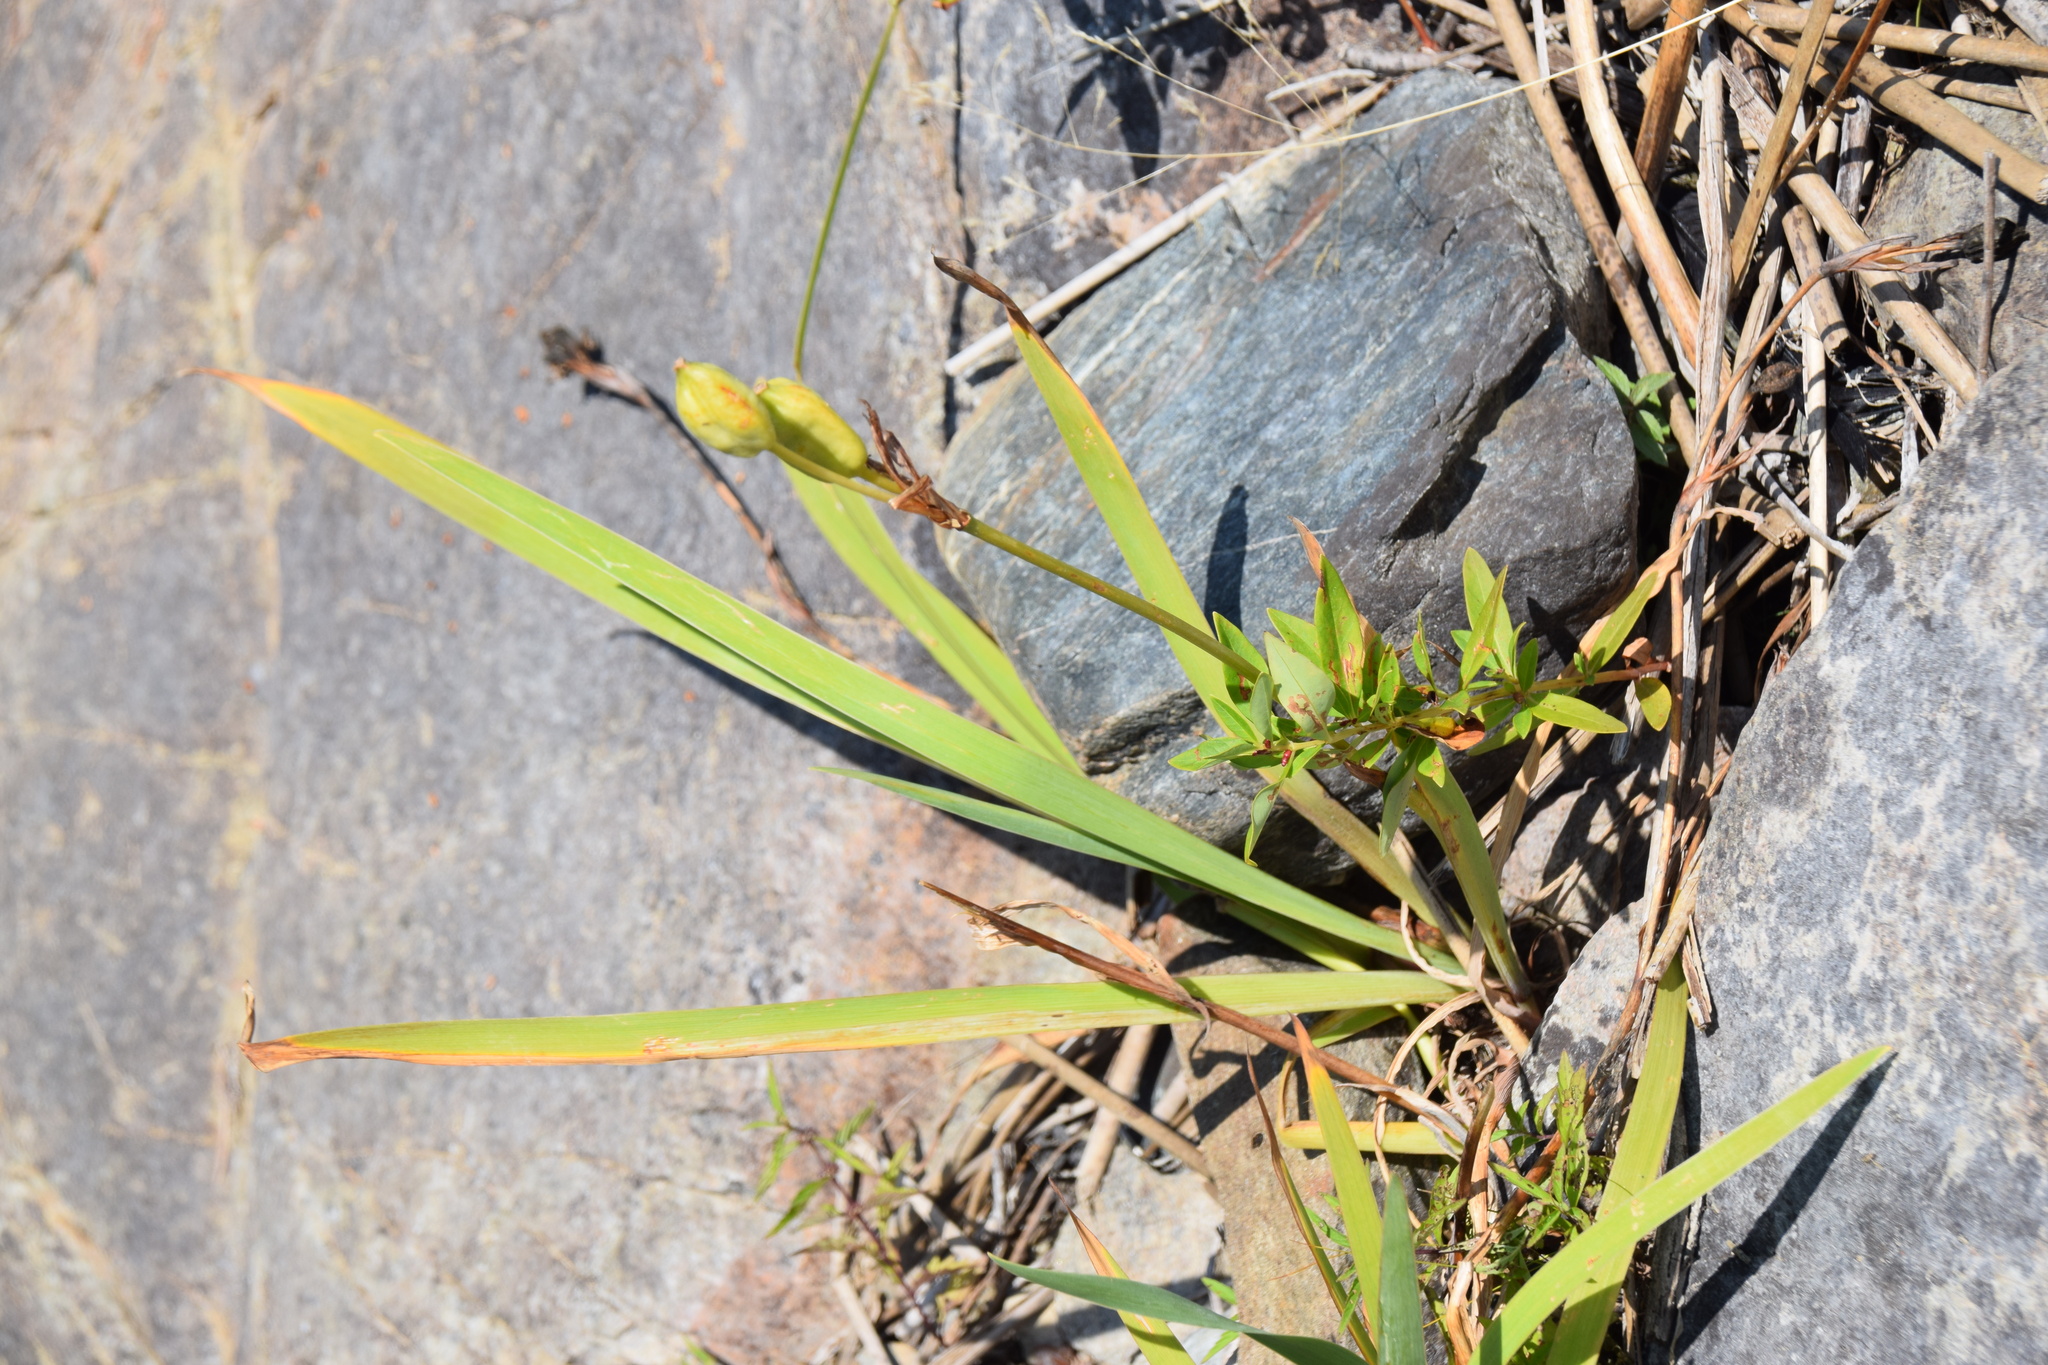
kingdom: Plantae
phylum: Tracheophyta
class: Liliopsida
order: Asparagales
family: Iridaceae
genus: Iris
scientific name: Iris versicolor
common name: Purple iris
